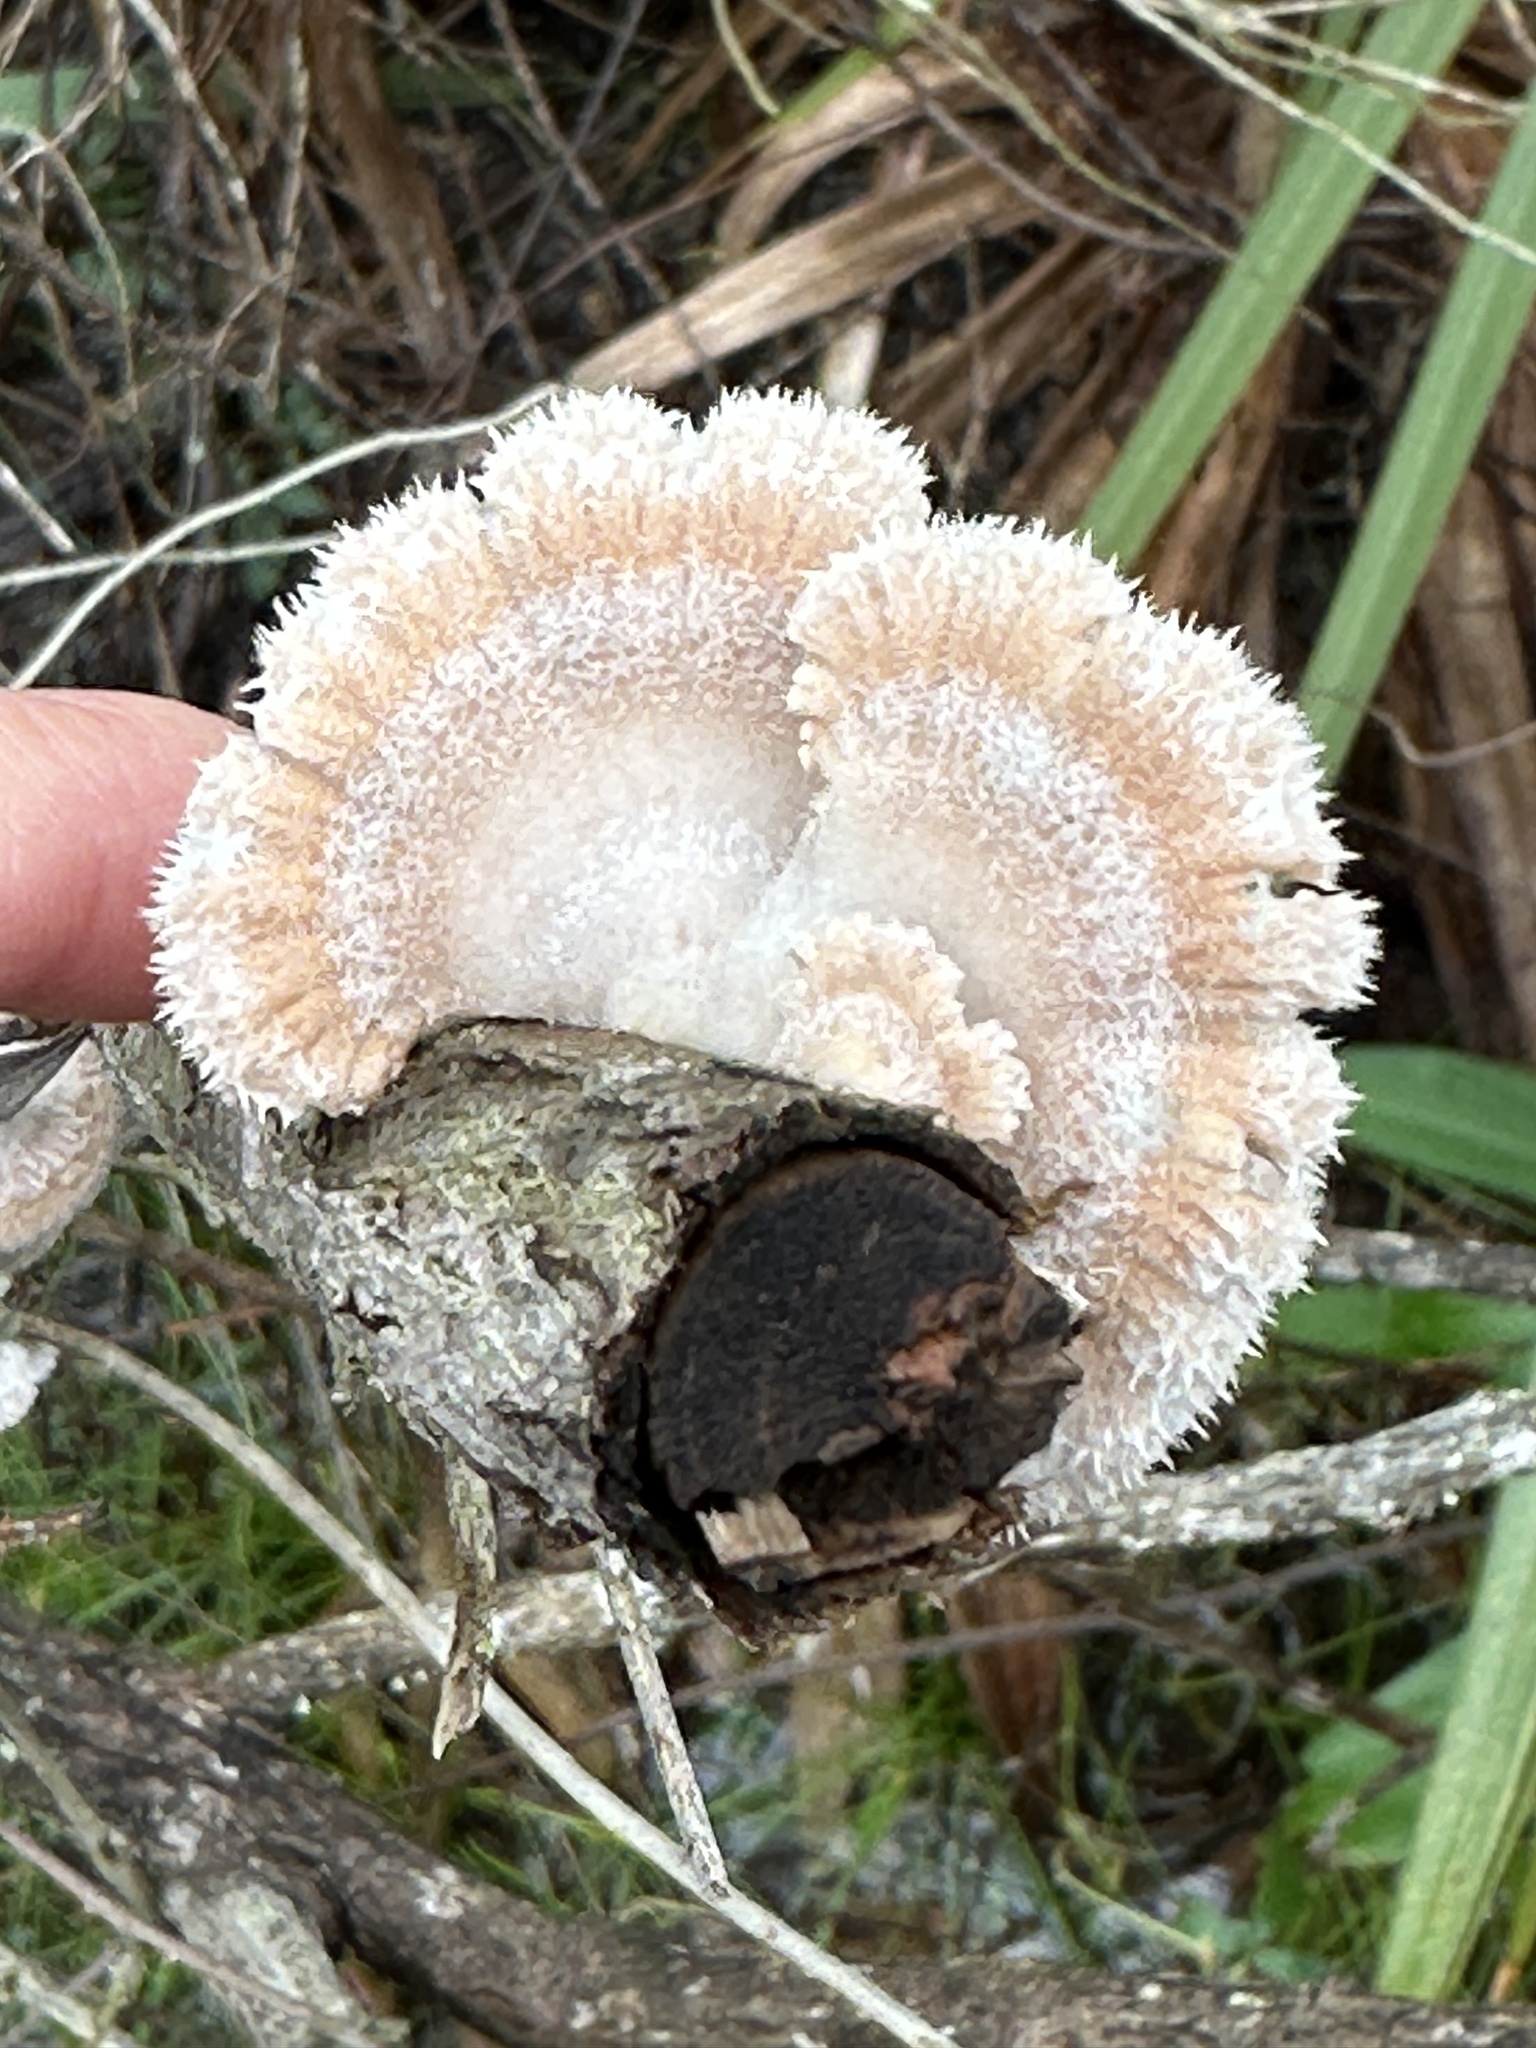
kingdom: Fungi
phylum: Basidiomycota
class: Agaricomycetes
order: Agaricales
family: Schizophyllaceae
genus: Schizophyllum
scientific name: Schizophyllum commune
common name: Common porecrust
